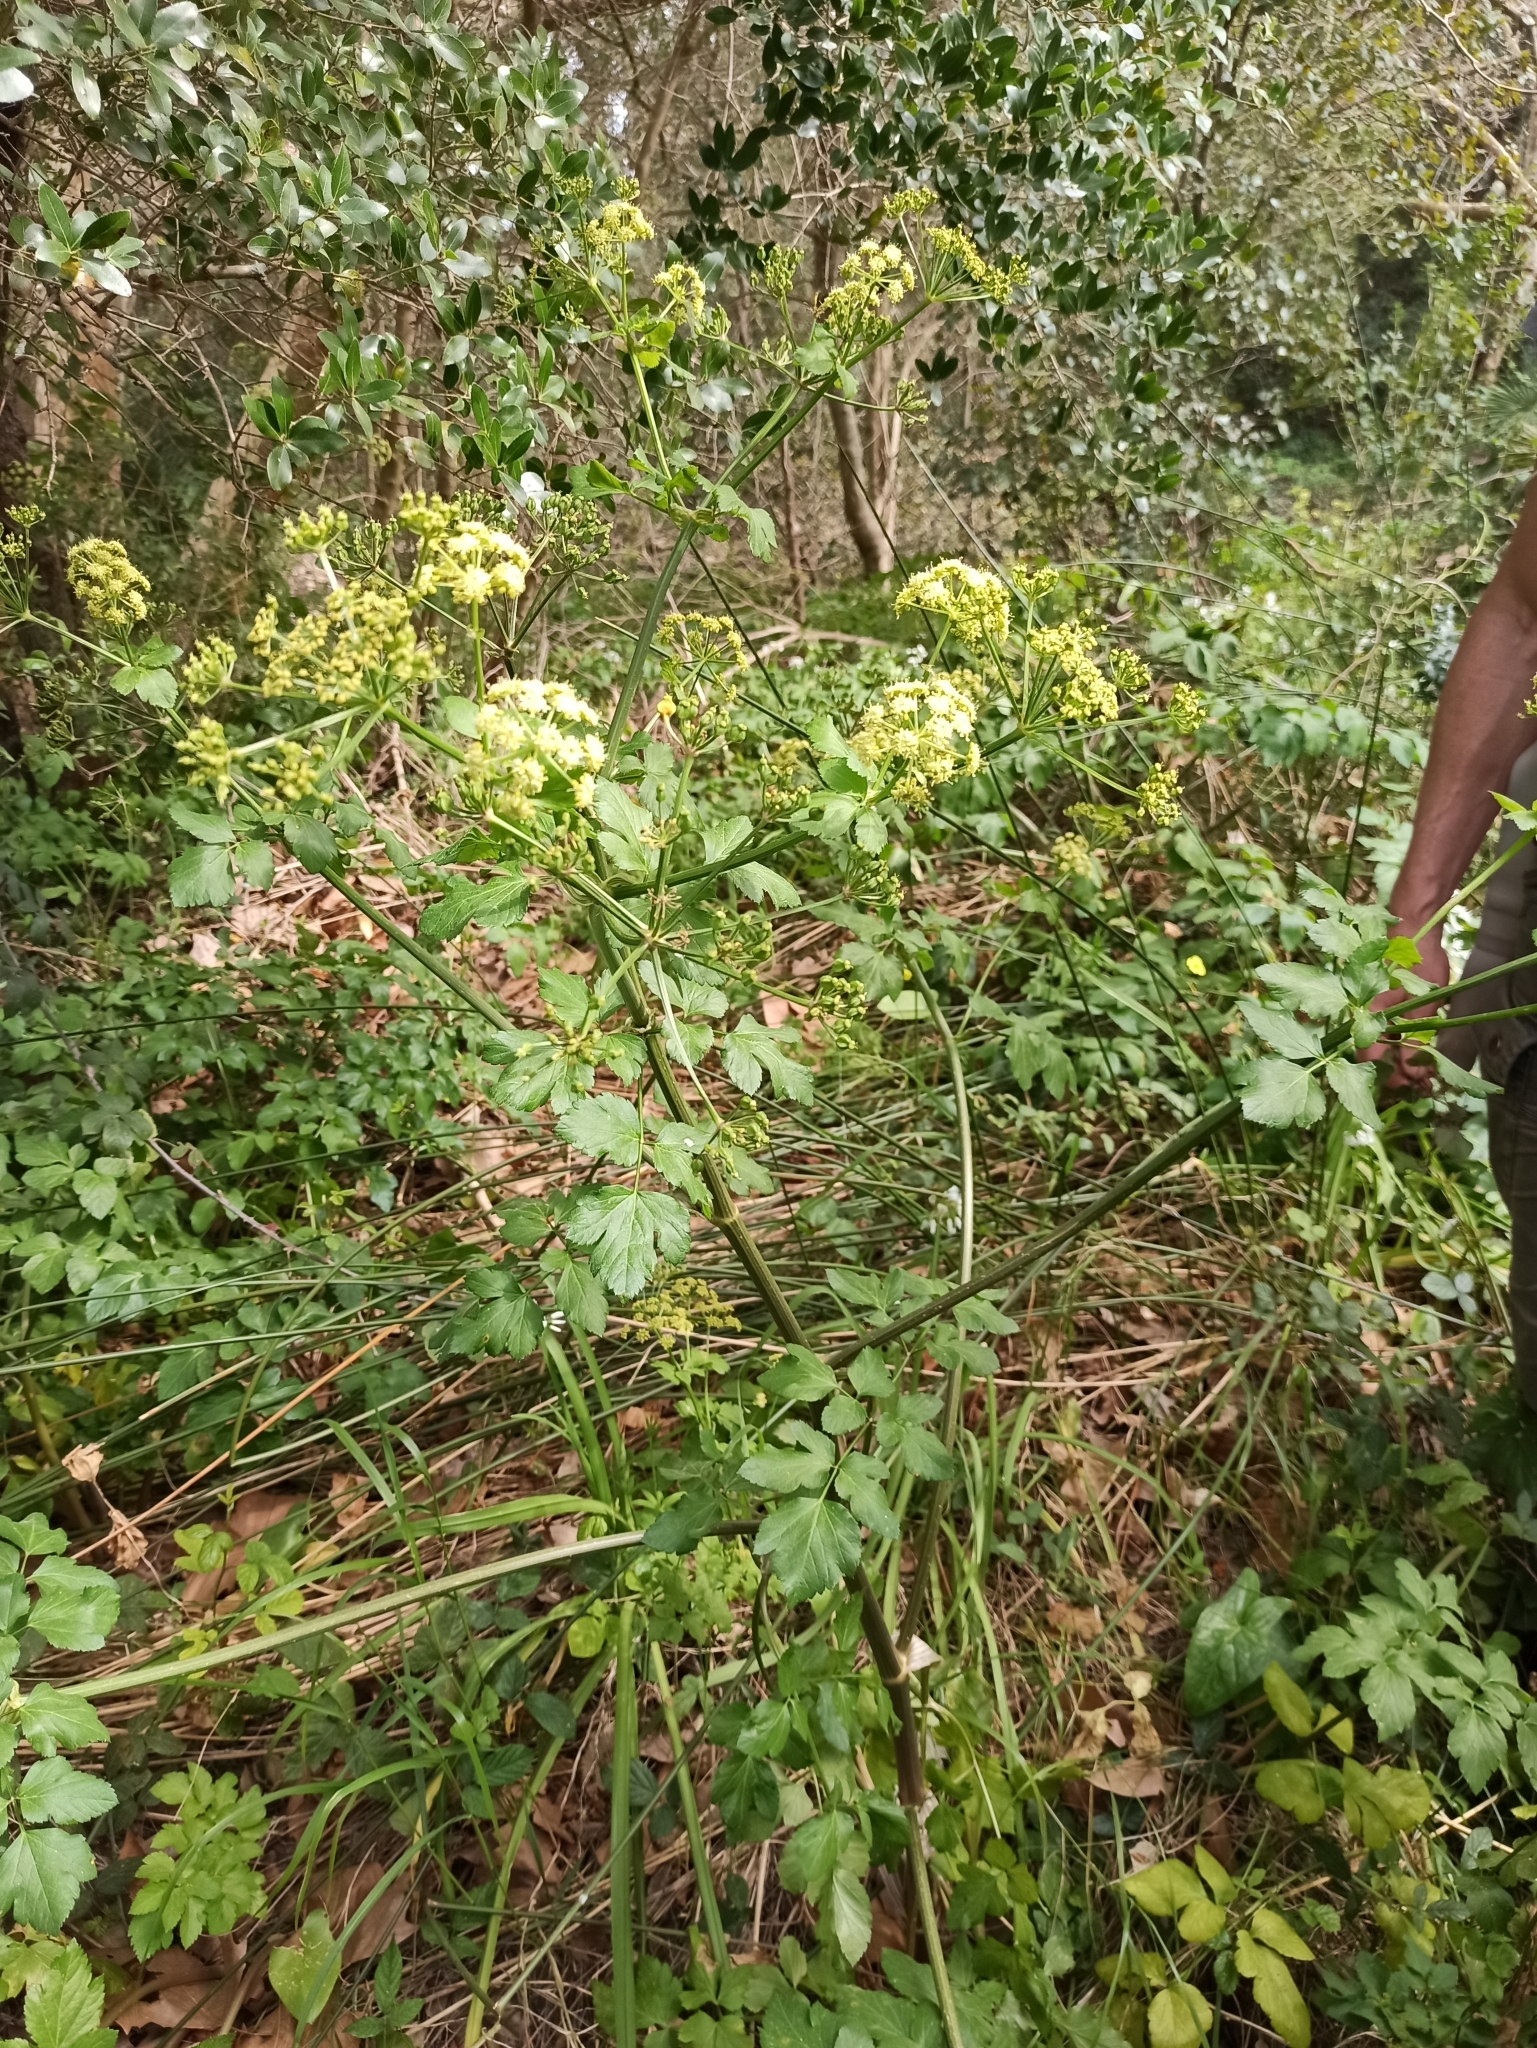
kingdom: Plantae
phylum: Tracheophyta
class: Magnoliopsida
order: Apiales
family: Apiaceae
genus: Smyrnium
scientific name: Smyrnium olusatrum
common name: Alexanders
